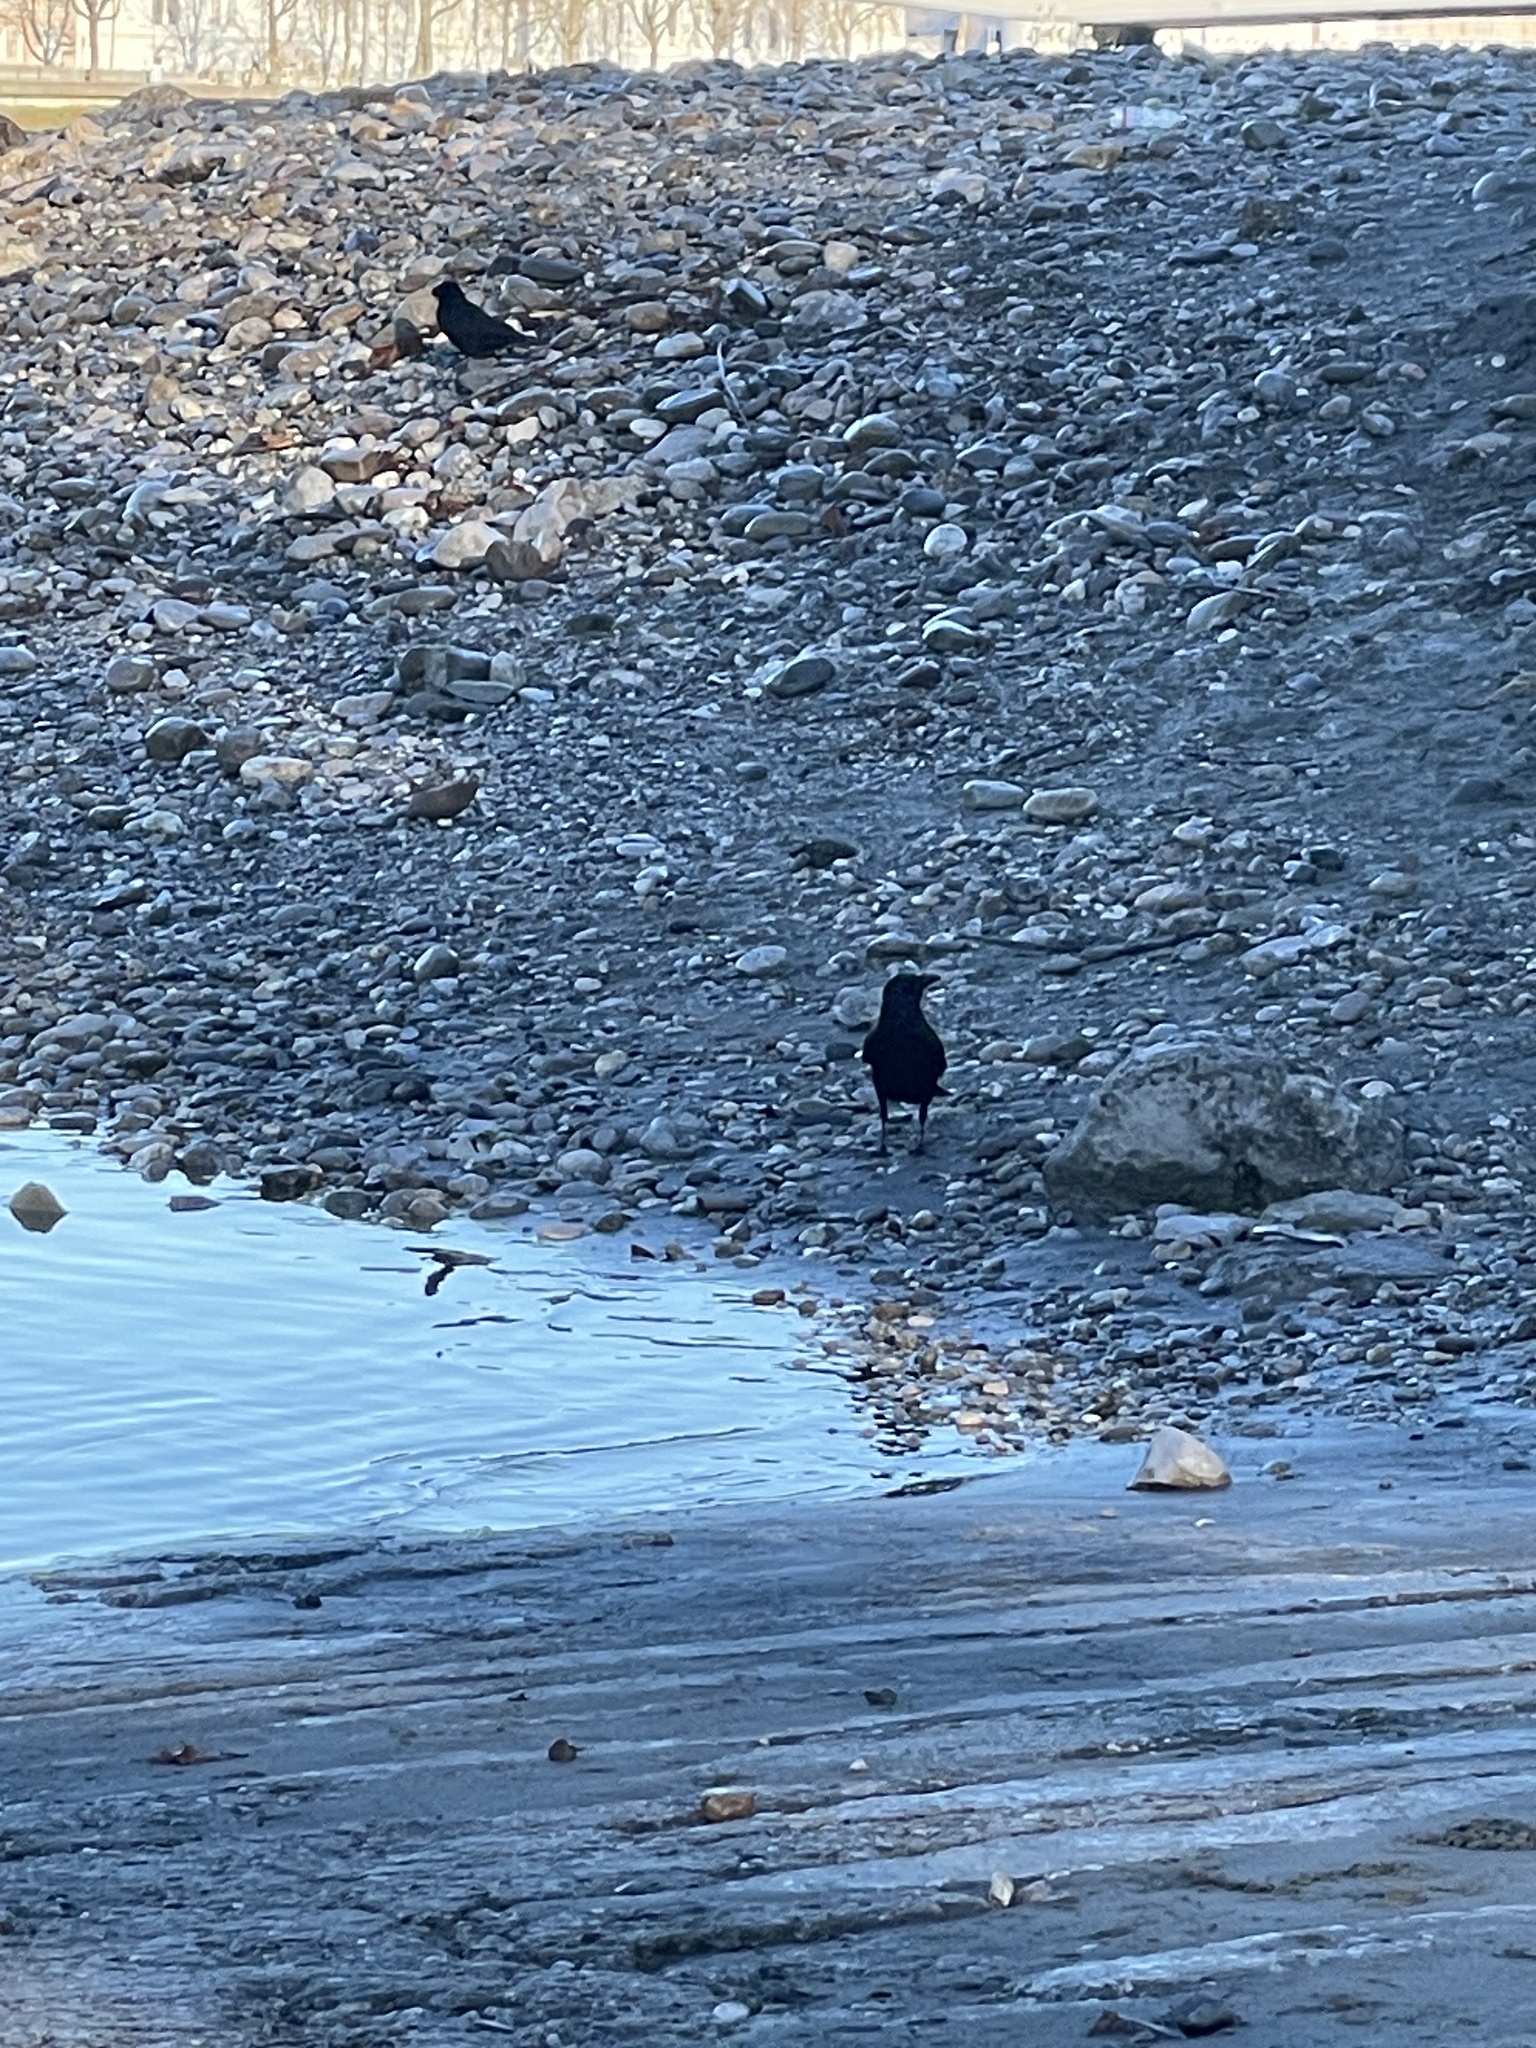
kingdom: Animalia
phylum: Chordata
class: Aves
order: Passeriformes
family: Corvidae
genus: Corvus
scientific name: Corvus corone
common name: Carrion crow
